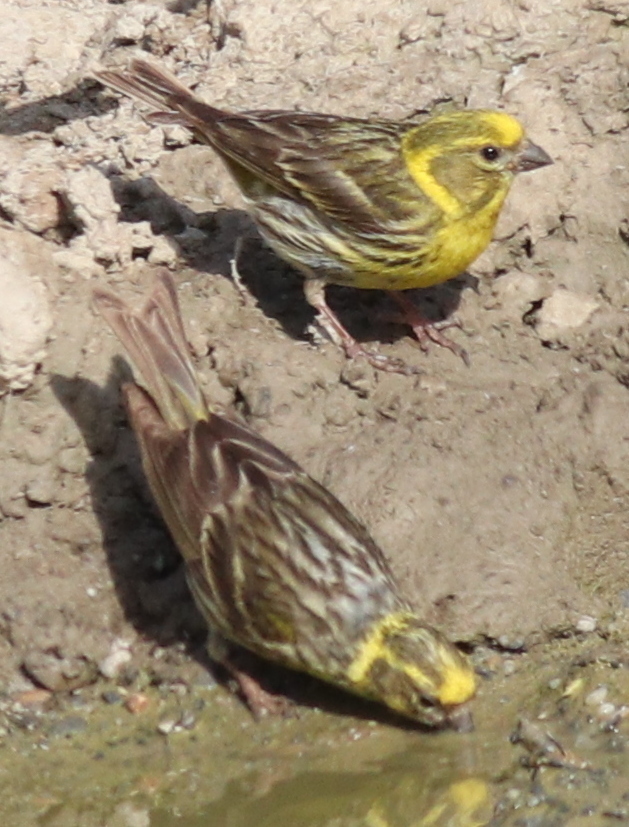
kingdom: Animalia
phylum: Chordata
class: Aves
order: Passeriformes
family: Fringillidae
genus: Serinus
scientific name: Serinus serinus
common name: European serin
